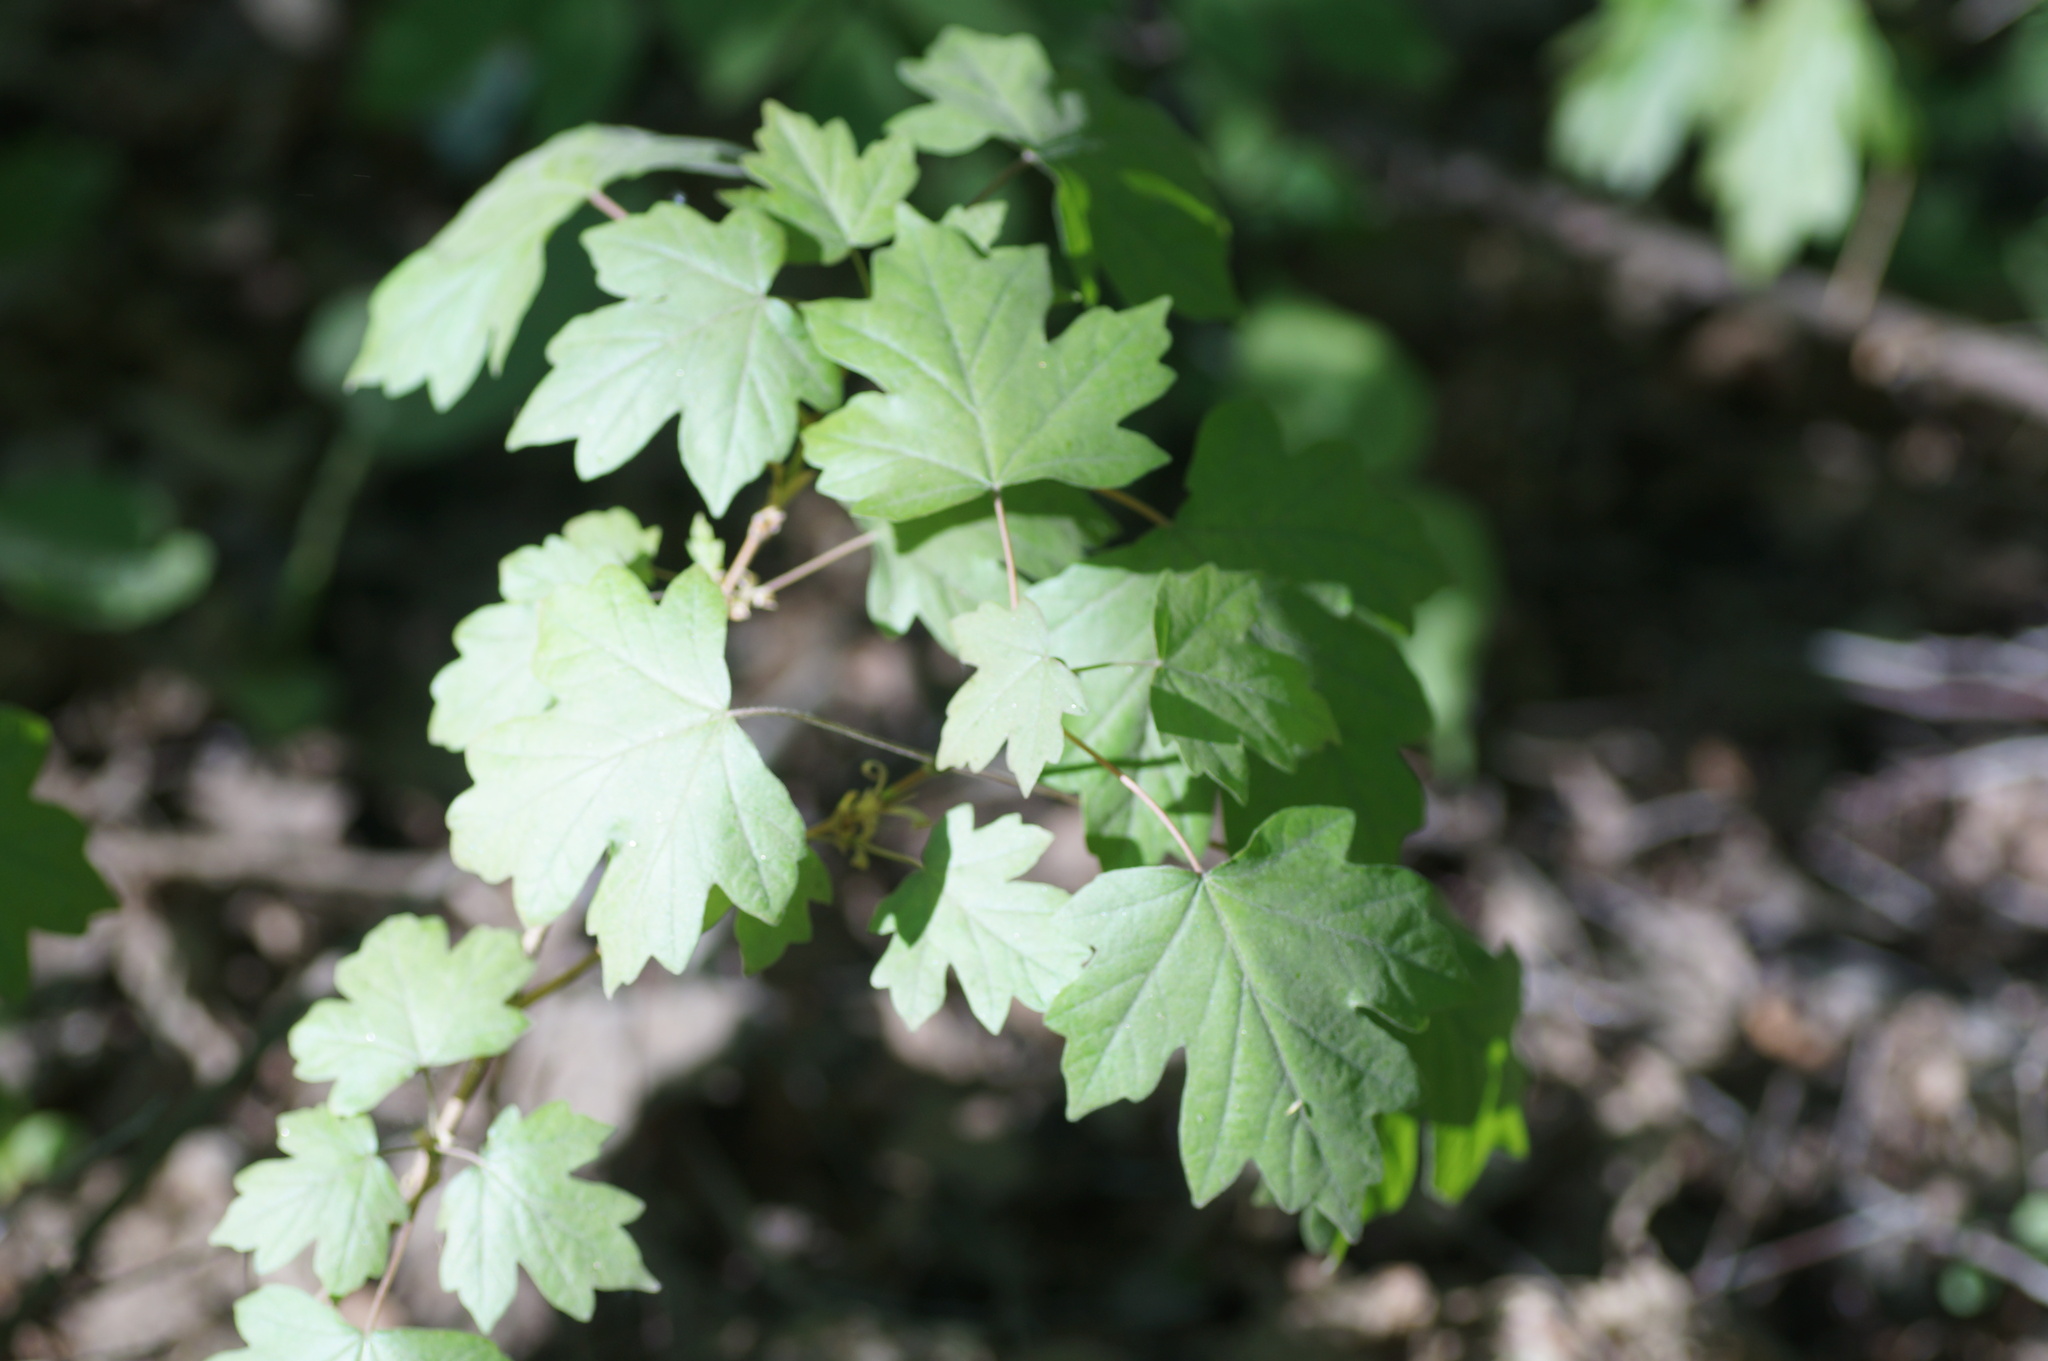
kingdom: Plantae
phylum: Tracheophyta
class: Magnoliopsida
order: Sapindales
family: Sapindaceae
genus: Acer
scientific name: Acer campestre
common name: Field maple
